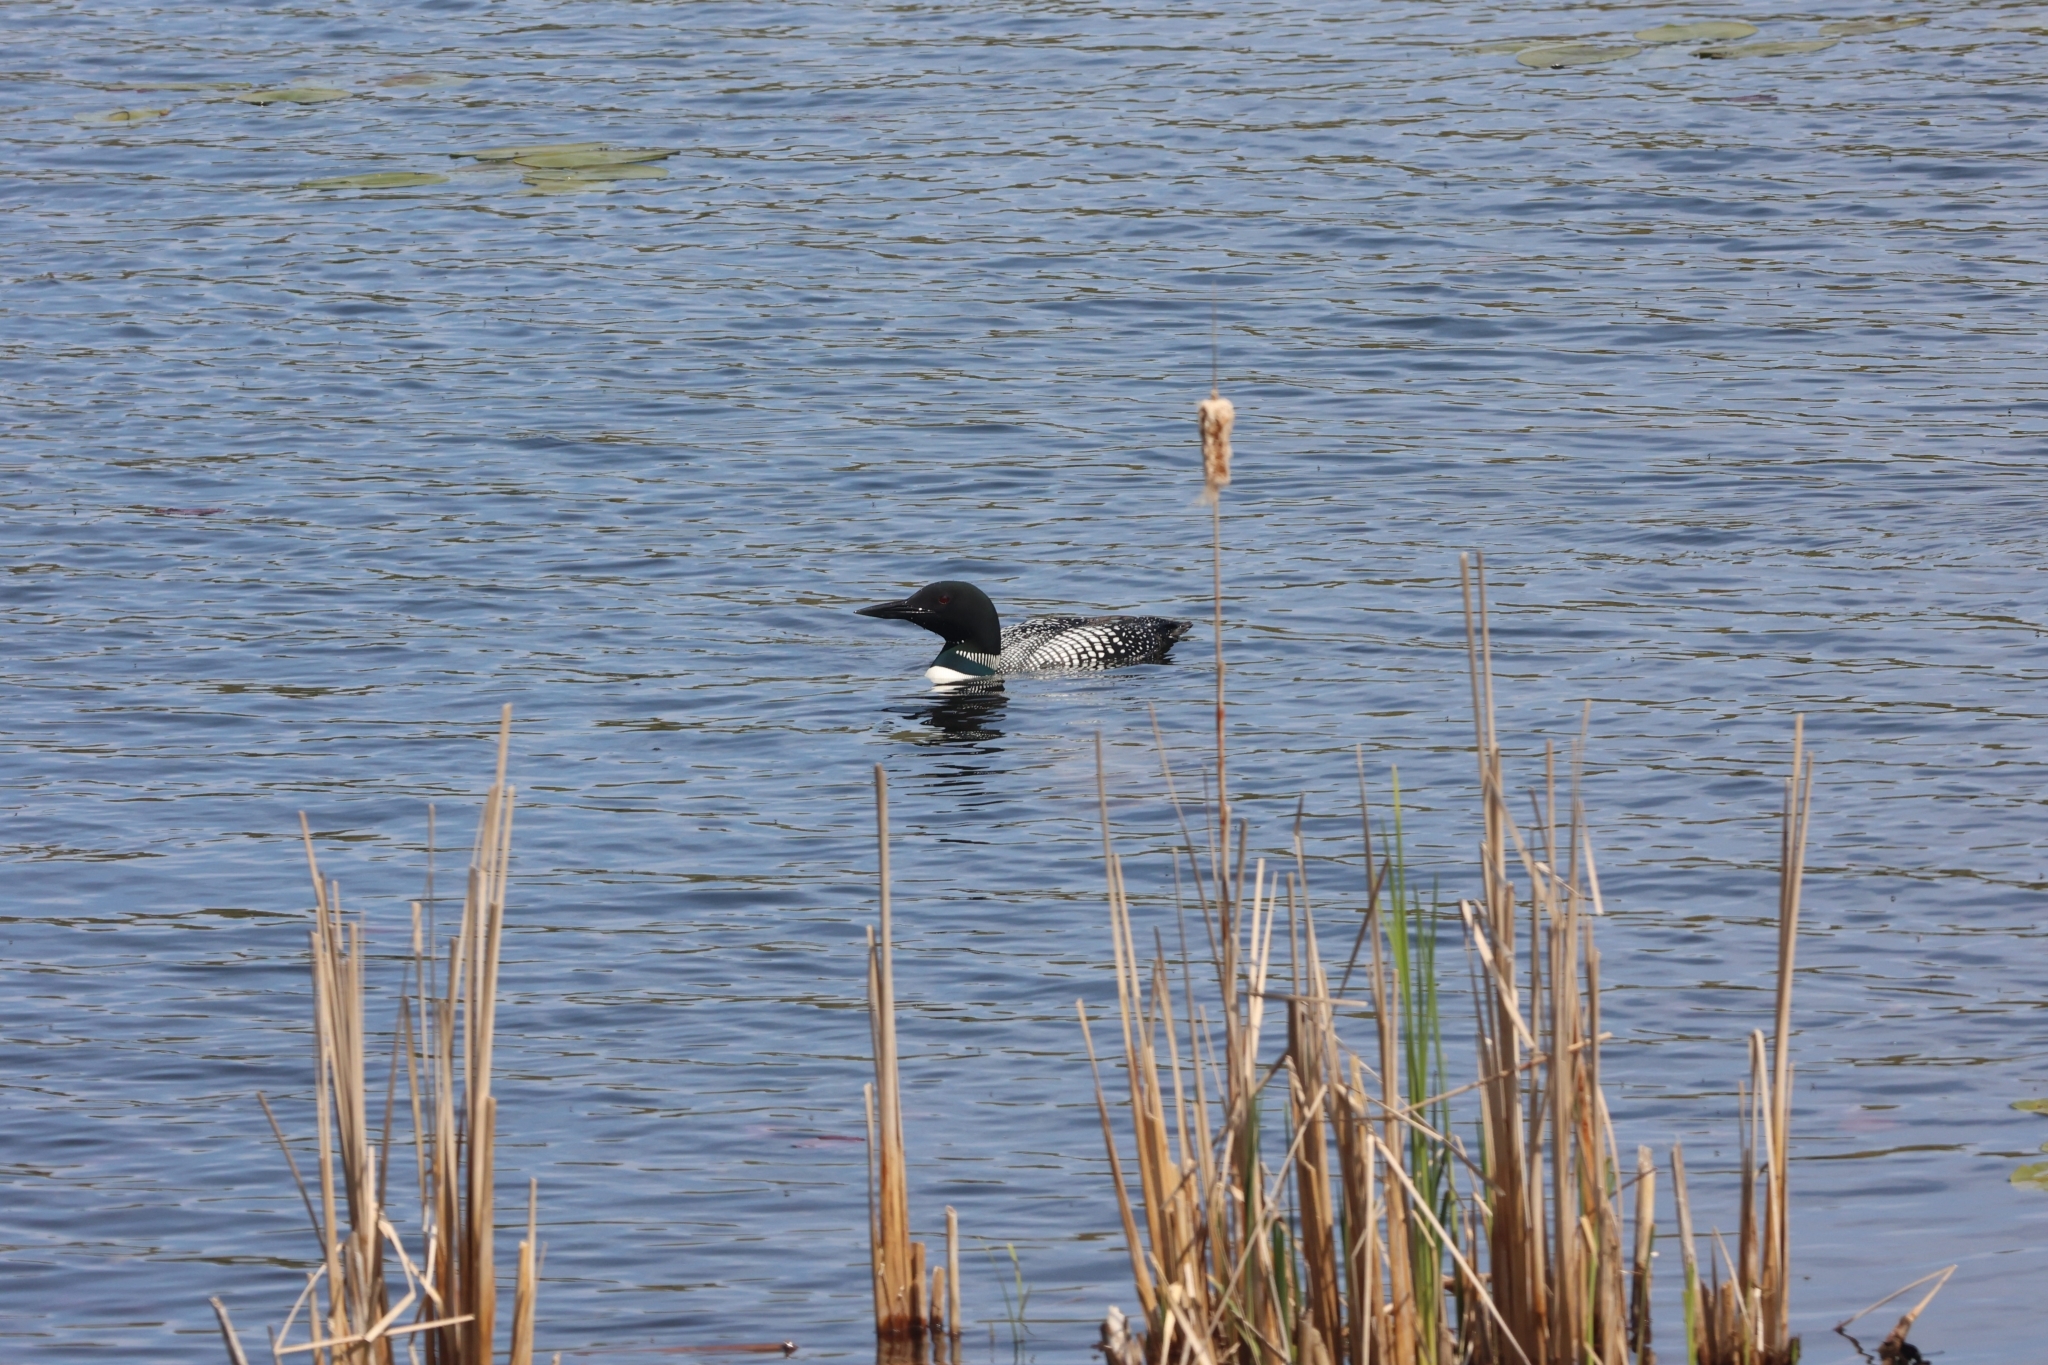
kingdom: Animalia
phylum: Chordata
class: Aves
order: Gaviiformes
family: Gaviidae
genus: Gavia
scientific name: Gavia immer
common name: Common loon
